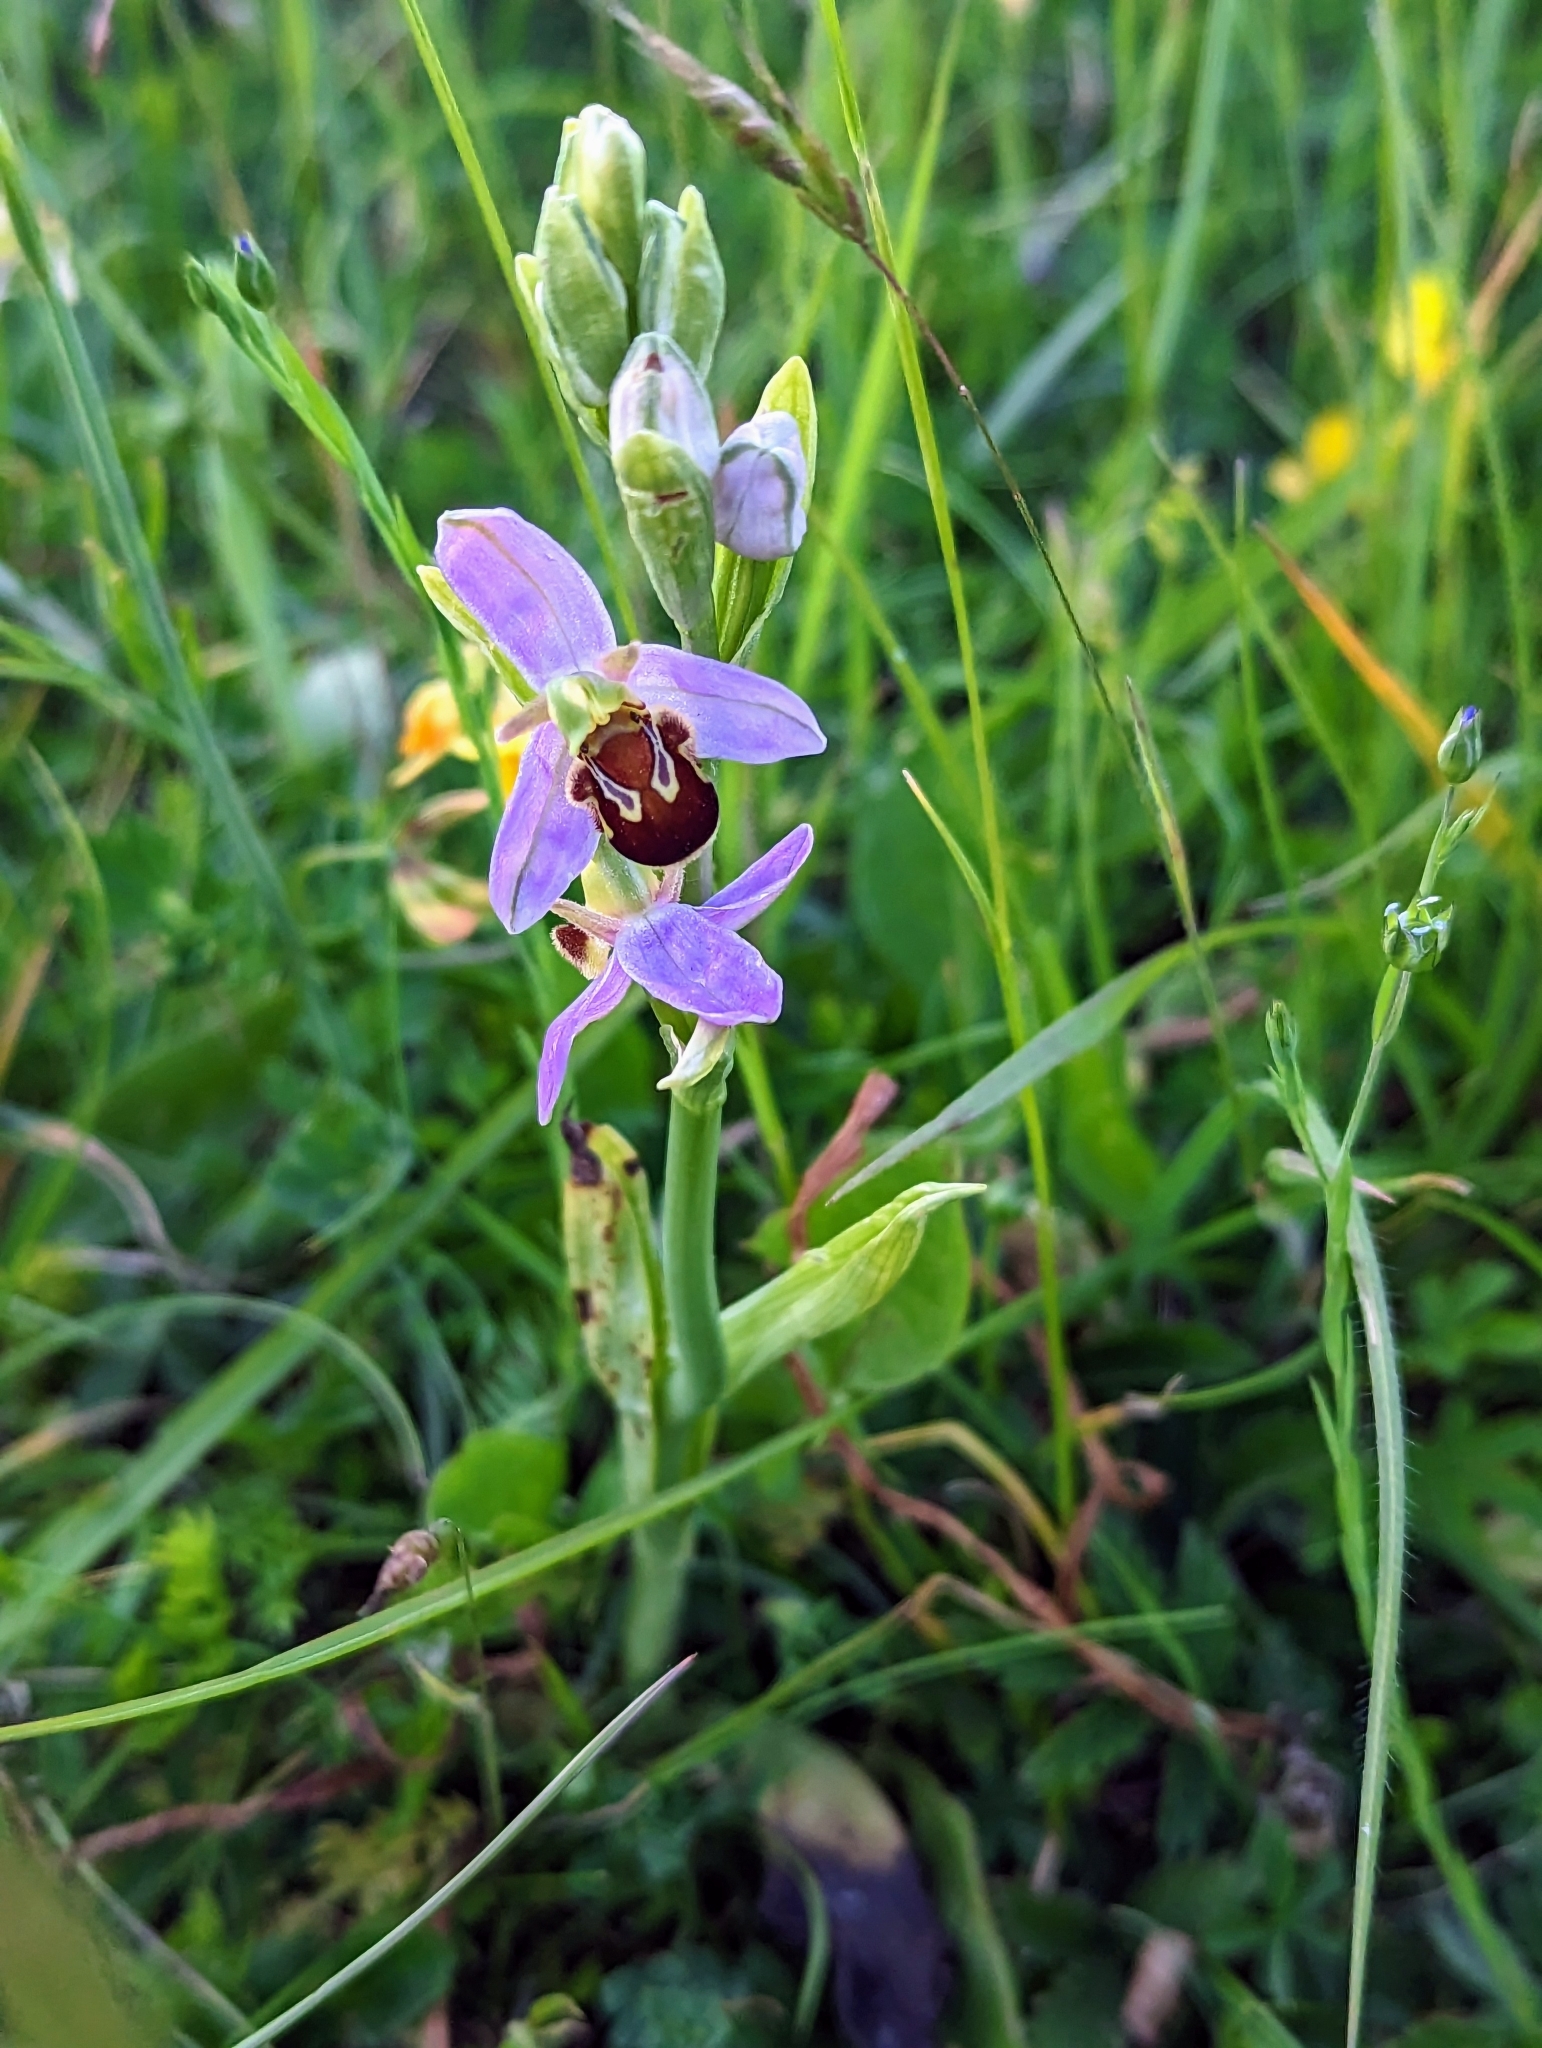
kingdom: Plantae
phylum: Tracheophyta
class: Liliopsida
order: Asparagales
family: Orchidaceae
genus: Ophrys
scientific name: Ophrys apifera
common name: Bee orchid
